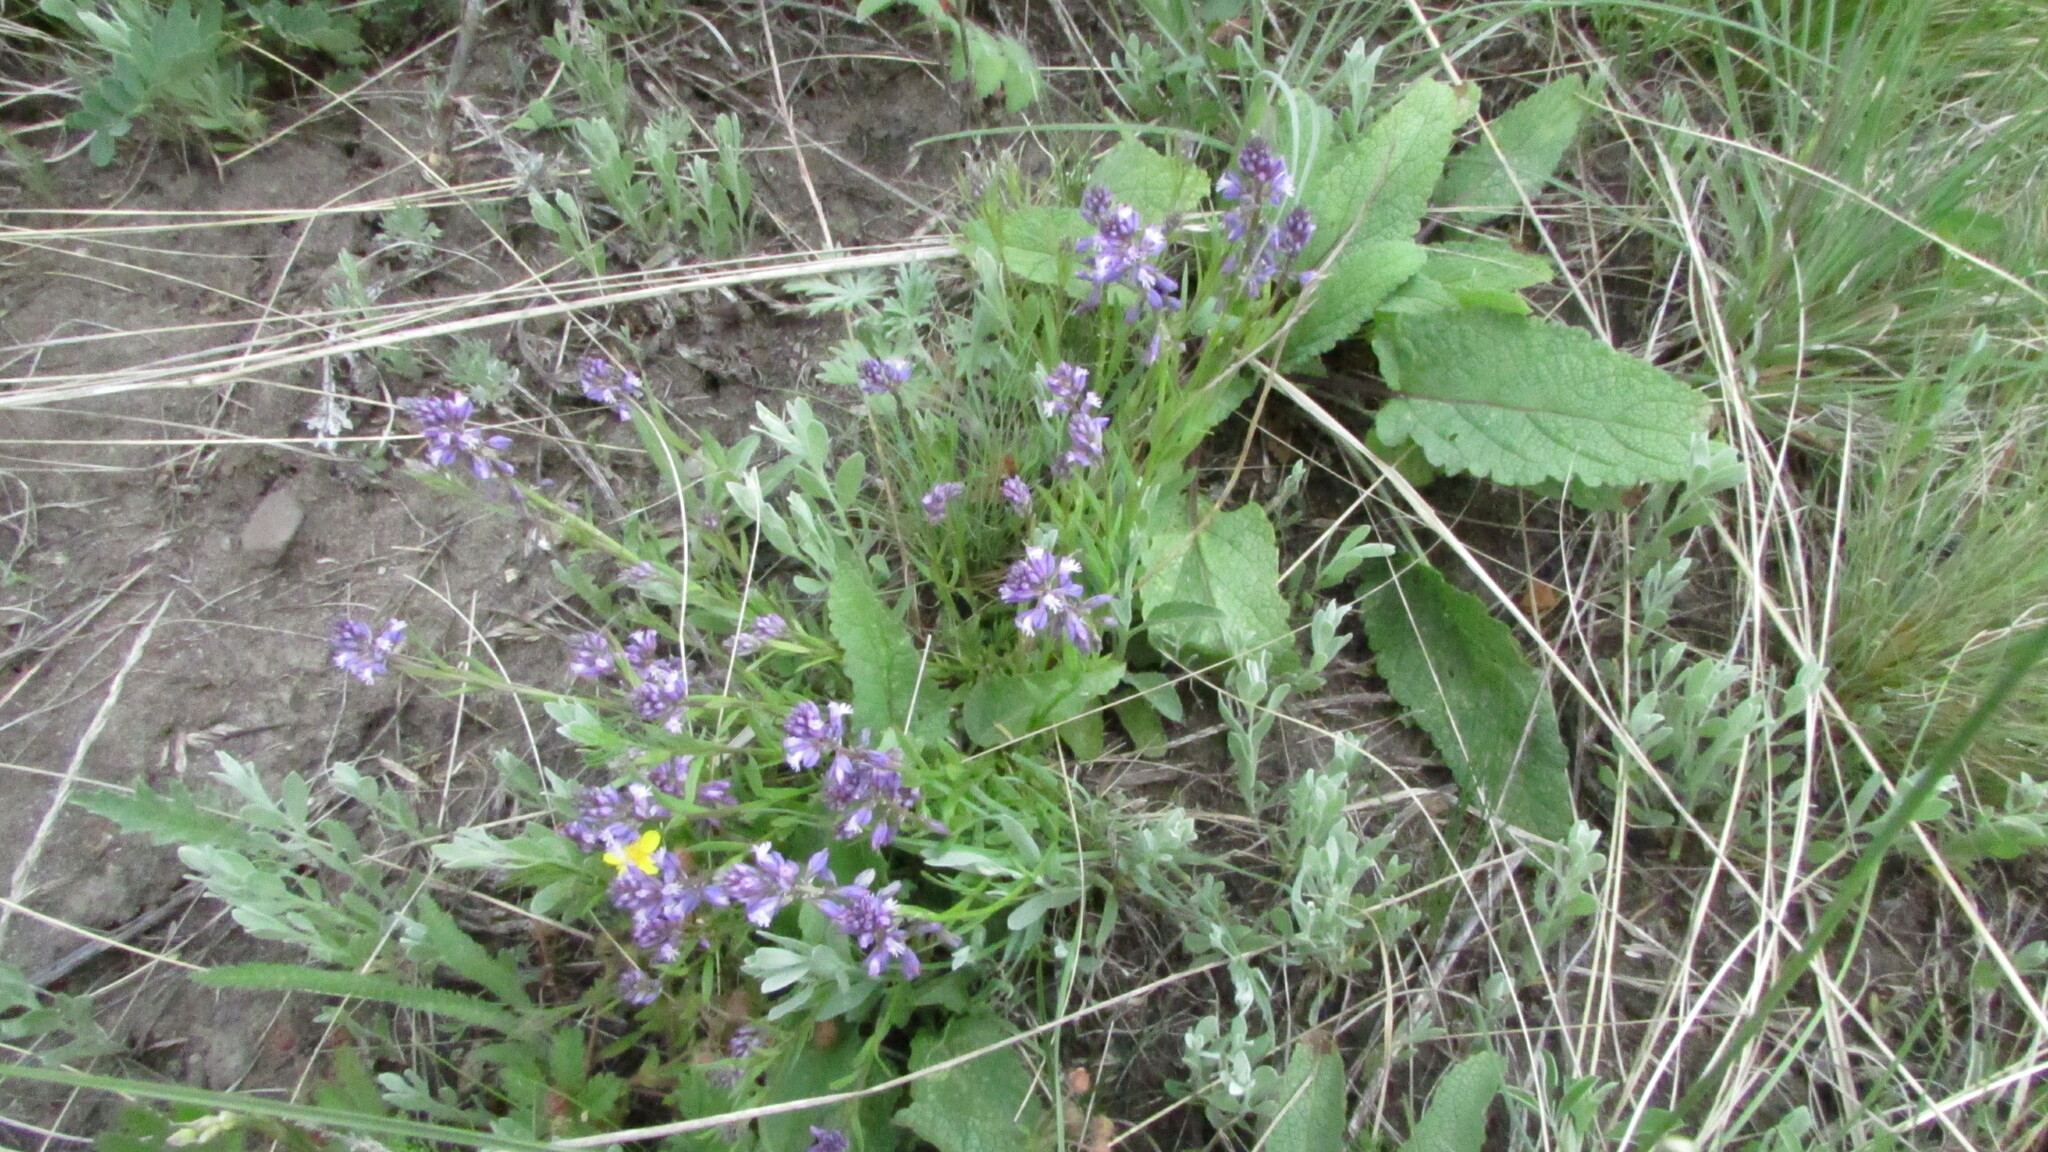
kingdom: Plantae
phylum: Tracheophyta
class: Magnoliopsida
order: Fabales
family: Polygalaceae
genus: Polygala
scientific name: Polygala comosa
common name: Tufted milkwort
